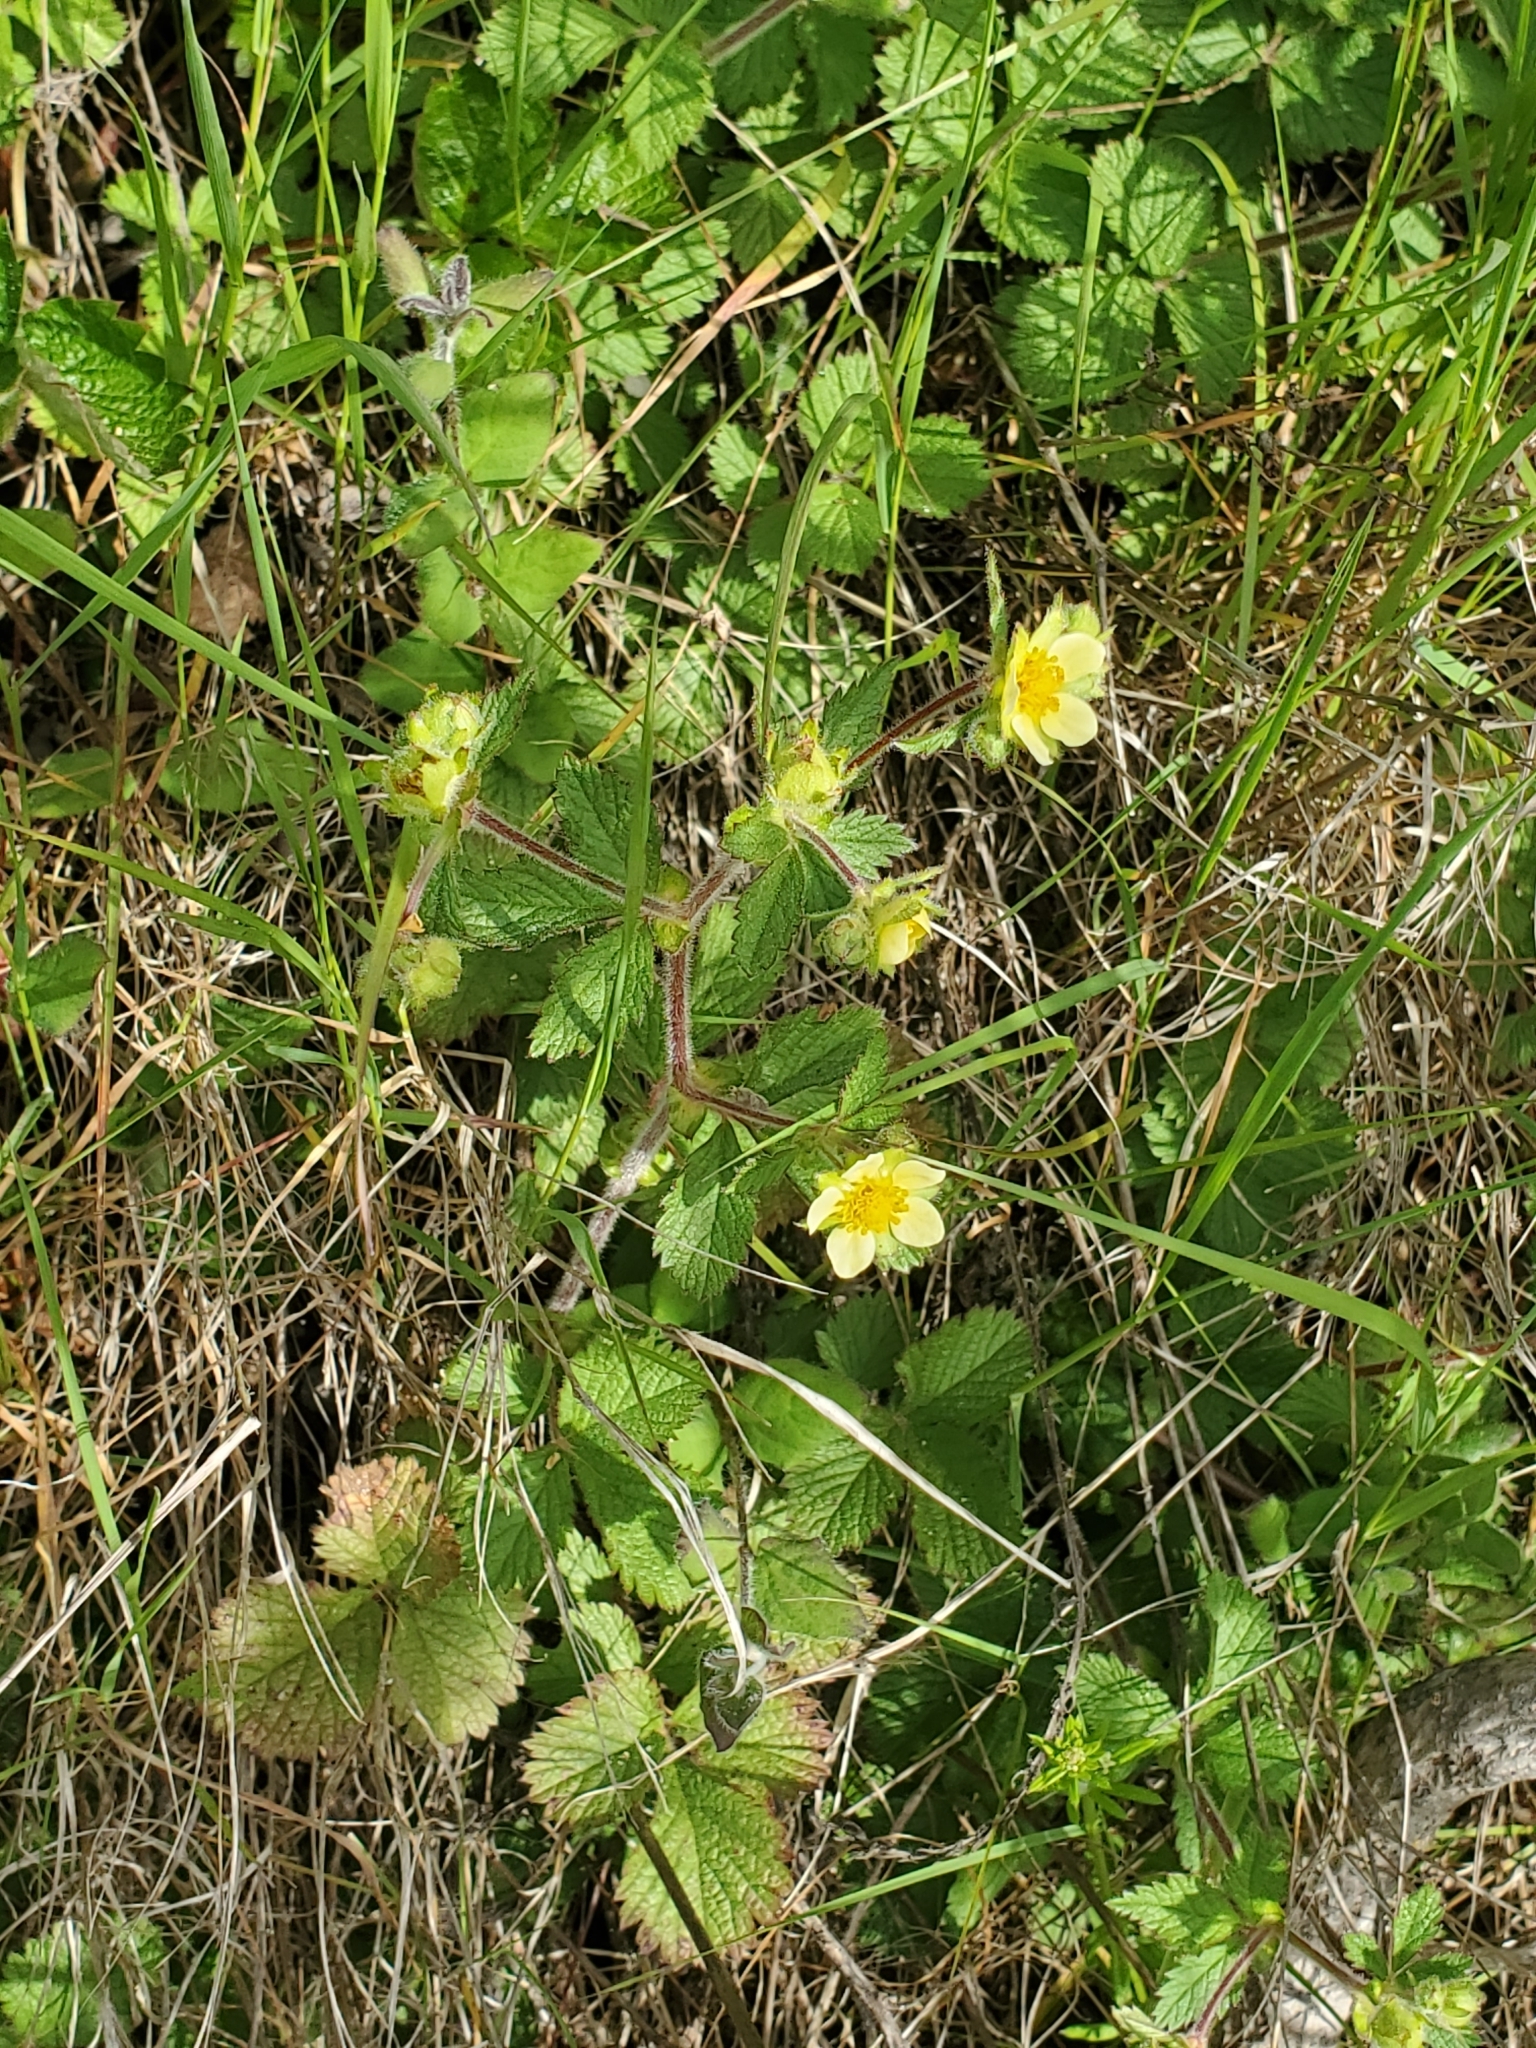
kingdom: Plantae
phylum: Tracheophyta
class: Magnoliopsida
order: Rosales
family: Rosaceae
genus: Drymocallis
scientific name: Drymocallis glandulosa
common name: Sticky cinquefoil
